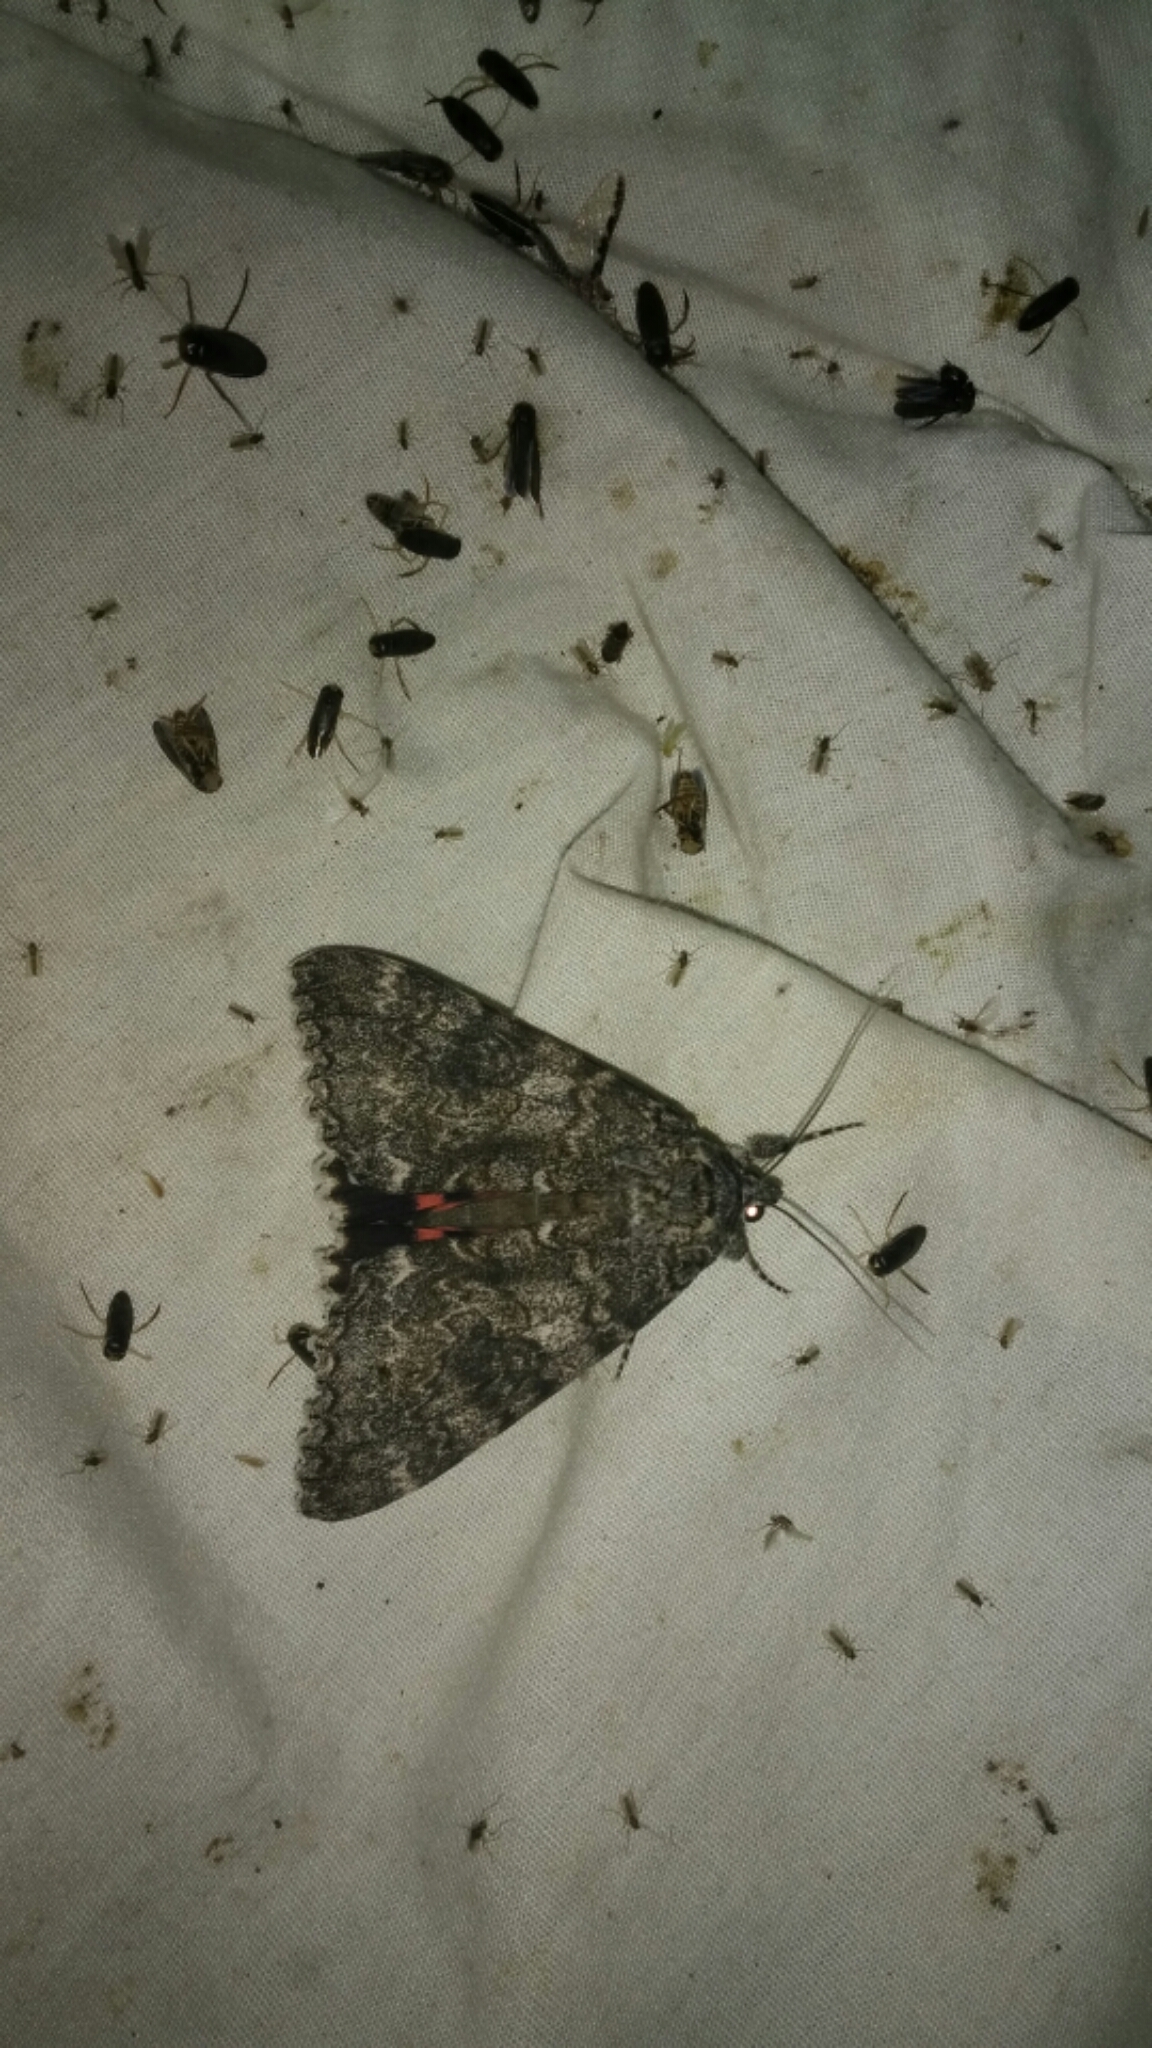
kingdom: Animalia
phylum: Arthropoda
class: Insecta
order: Lepidoptera
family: Erebidae
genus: Catocala
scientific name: Catocala unijuga
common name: Once-married underwing
